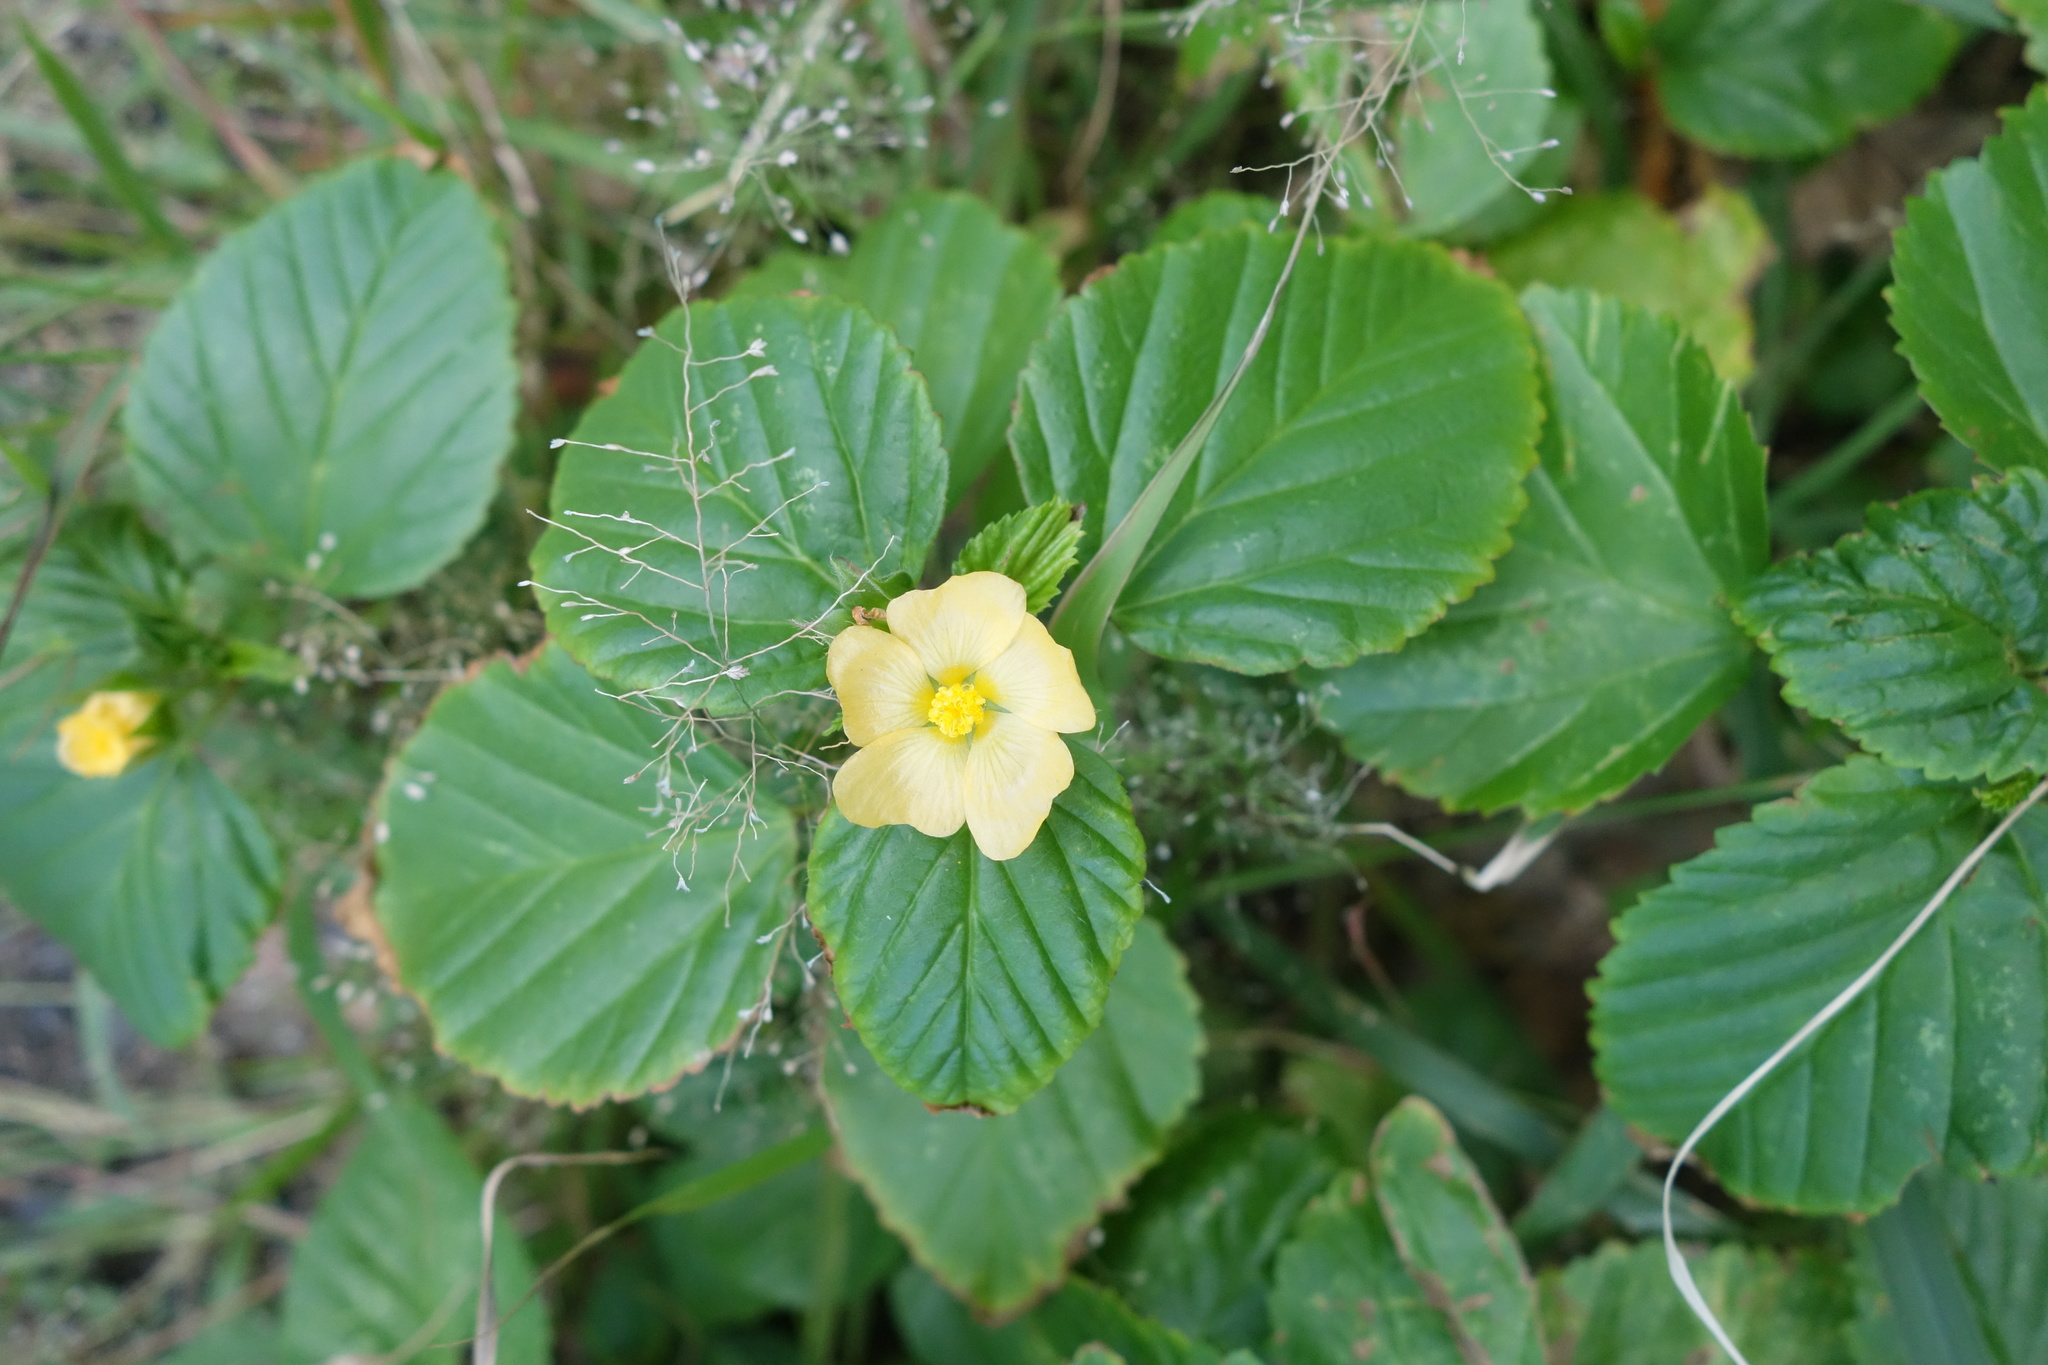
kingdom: Plantae
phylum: Tracheophyta
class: Magnoliopsida
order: Malvales
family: Malvaceae
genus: Malvastrum
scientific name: Malvastrum coromandelianum
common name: Threelobe false mallow
